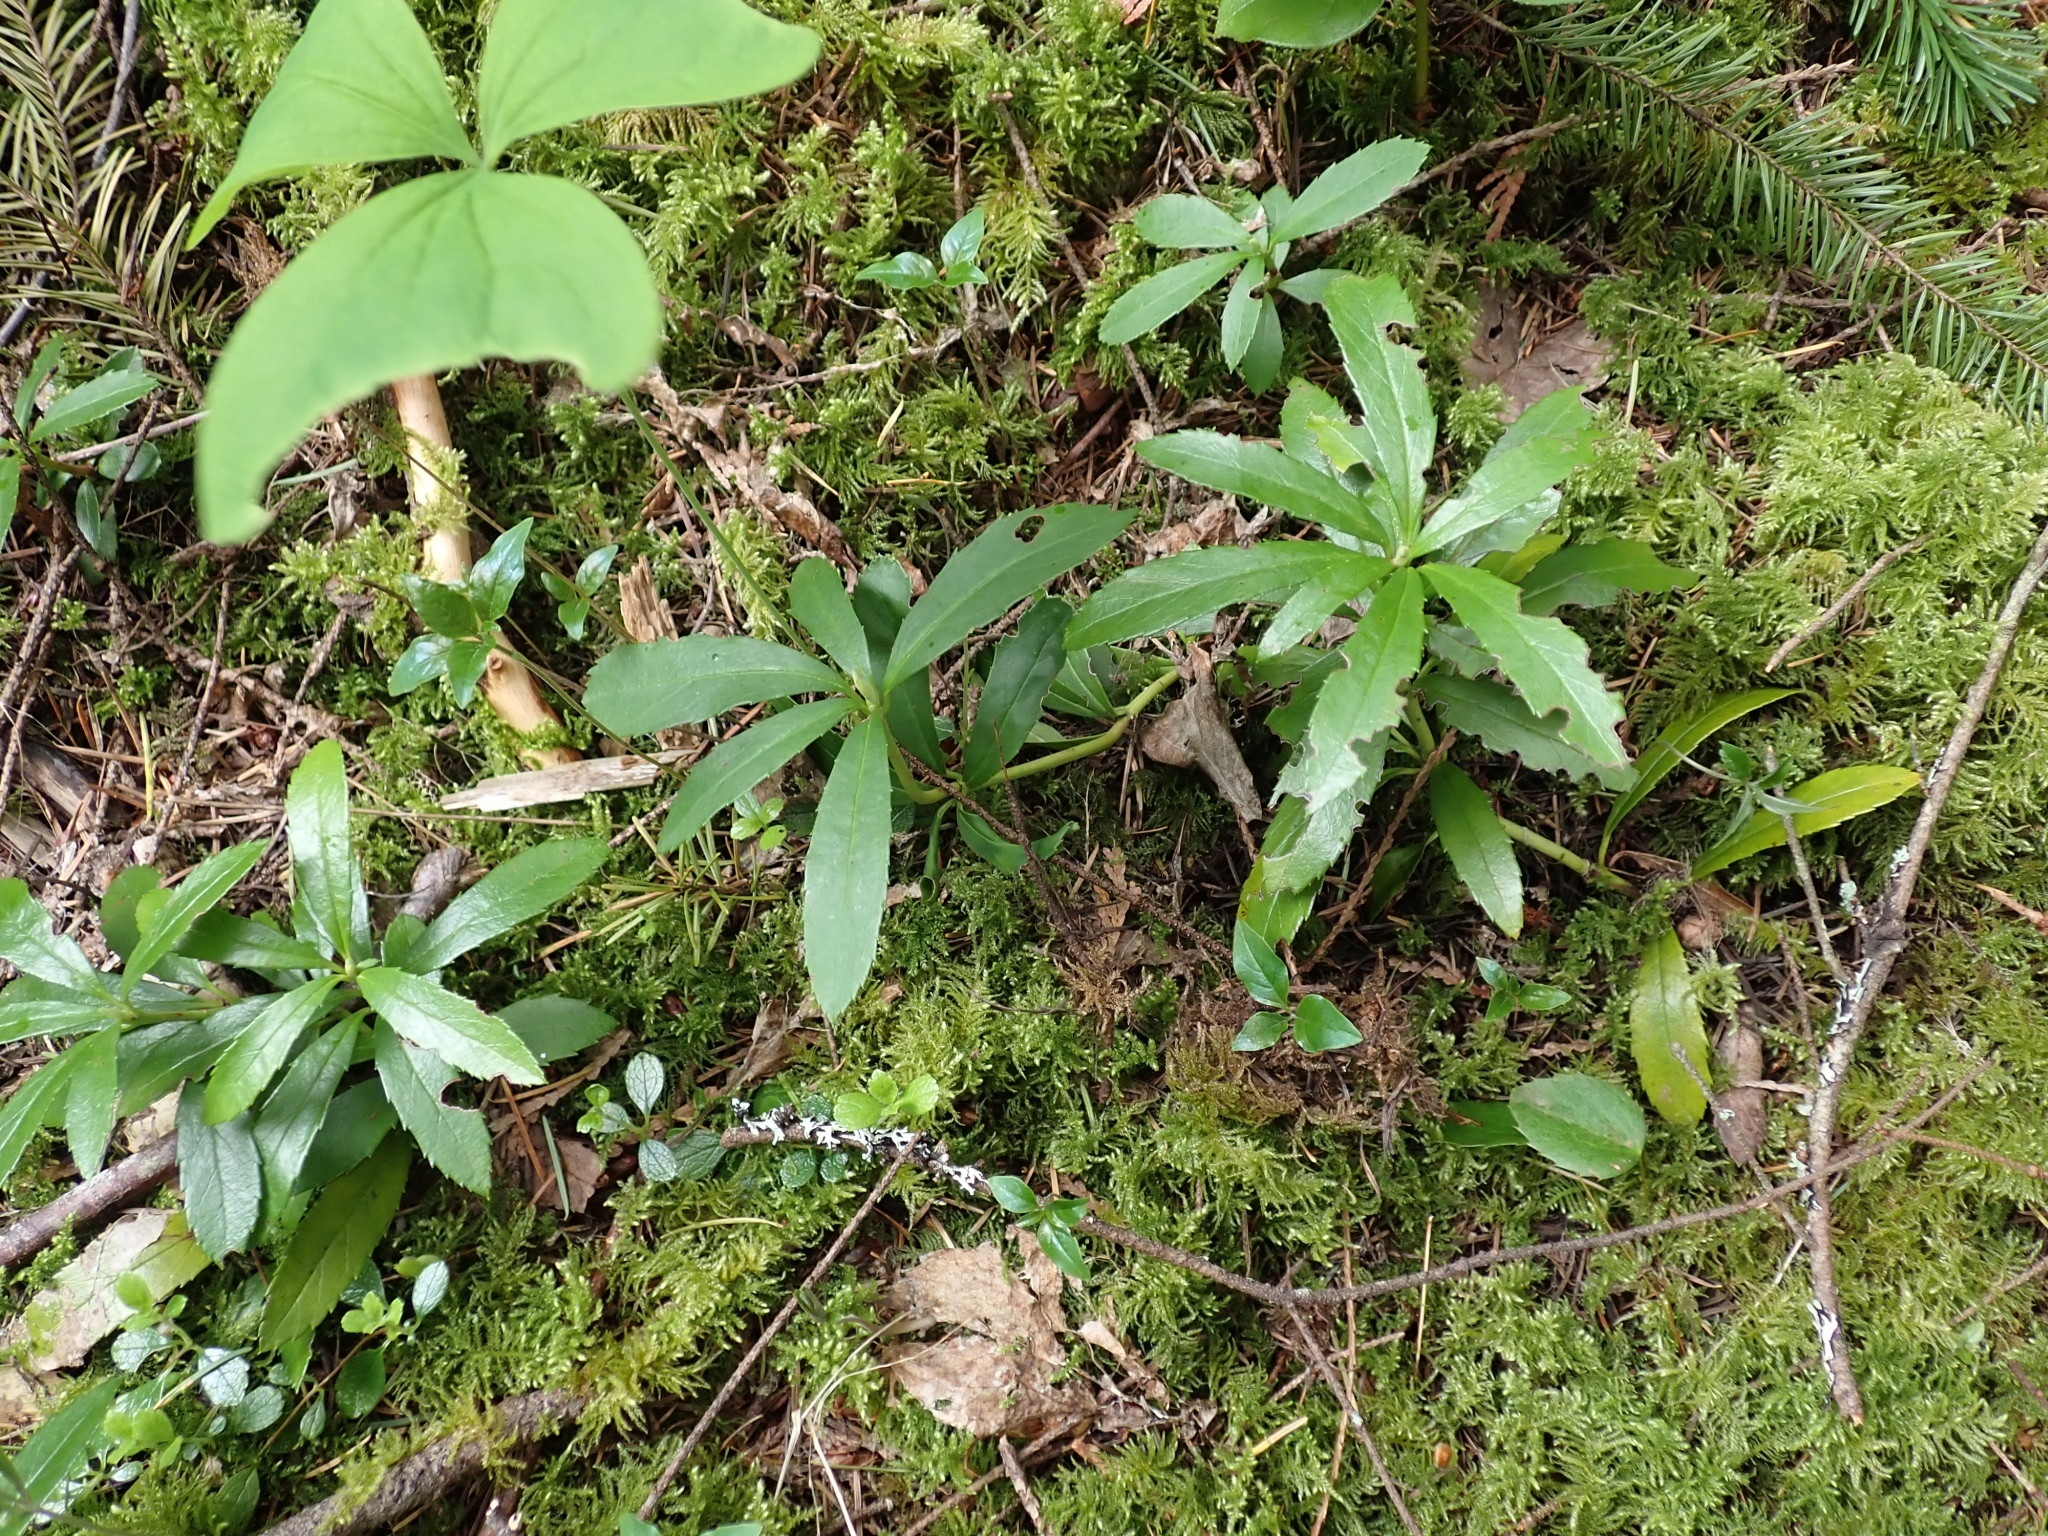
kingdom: Plantae
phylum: Tracheophyta
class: Magnoliopsida
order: Ericales
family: Ericaceae
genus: Chimaphila
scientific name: Chimaphila umbellata
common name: Pipsissewa
